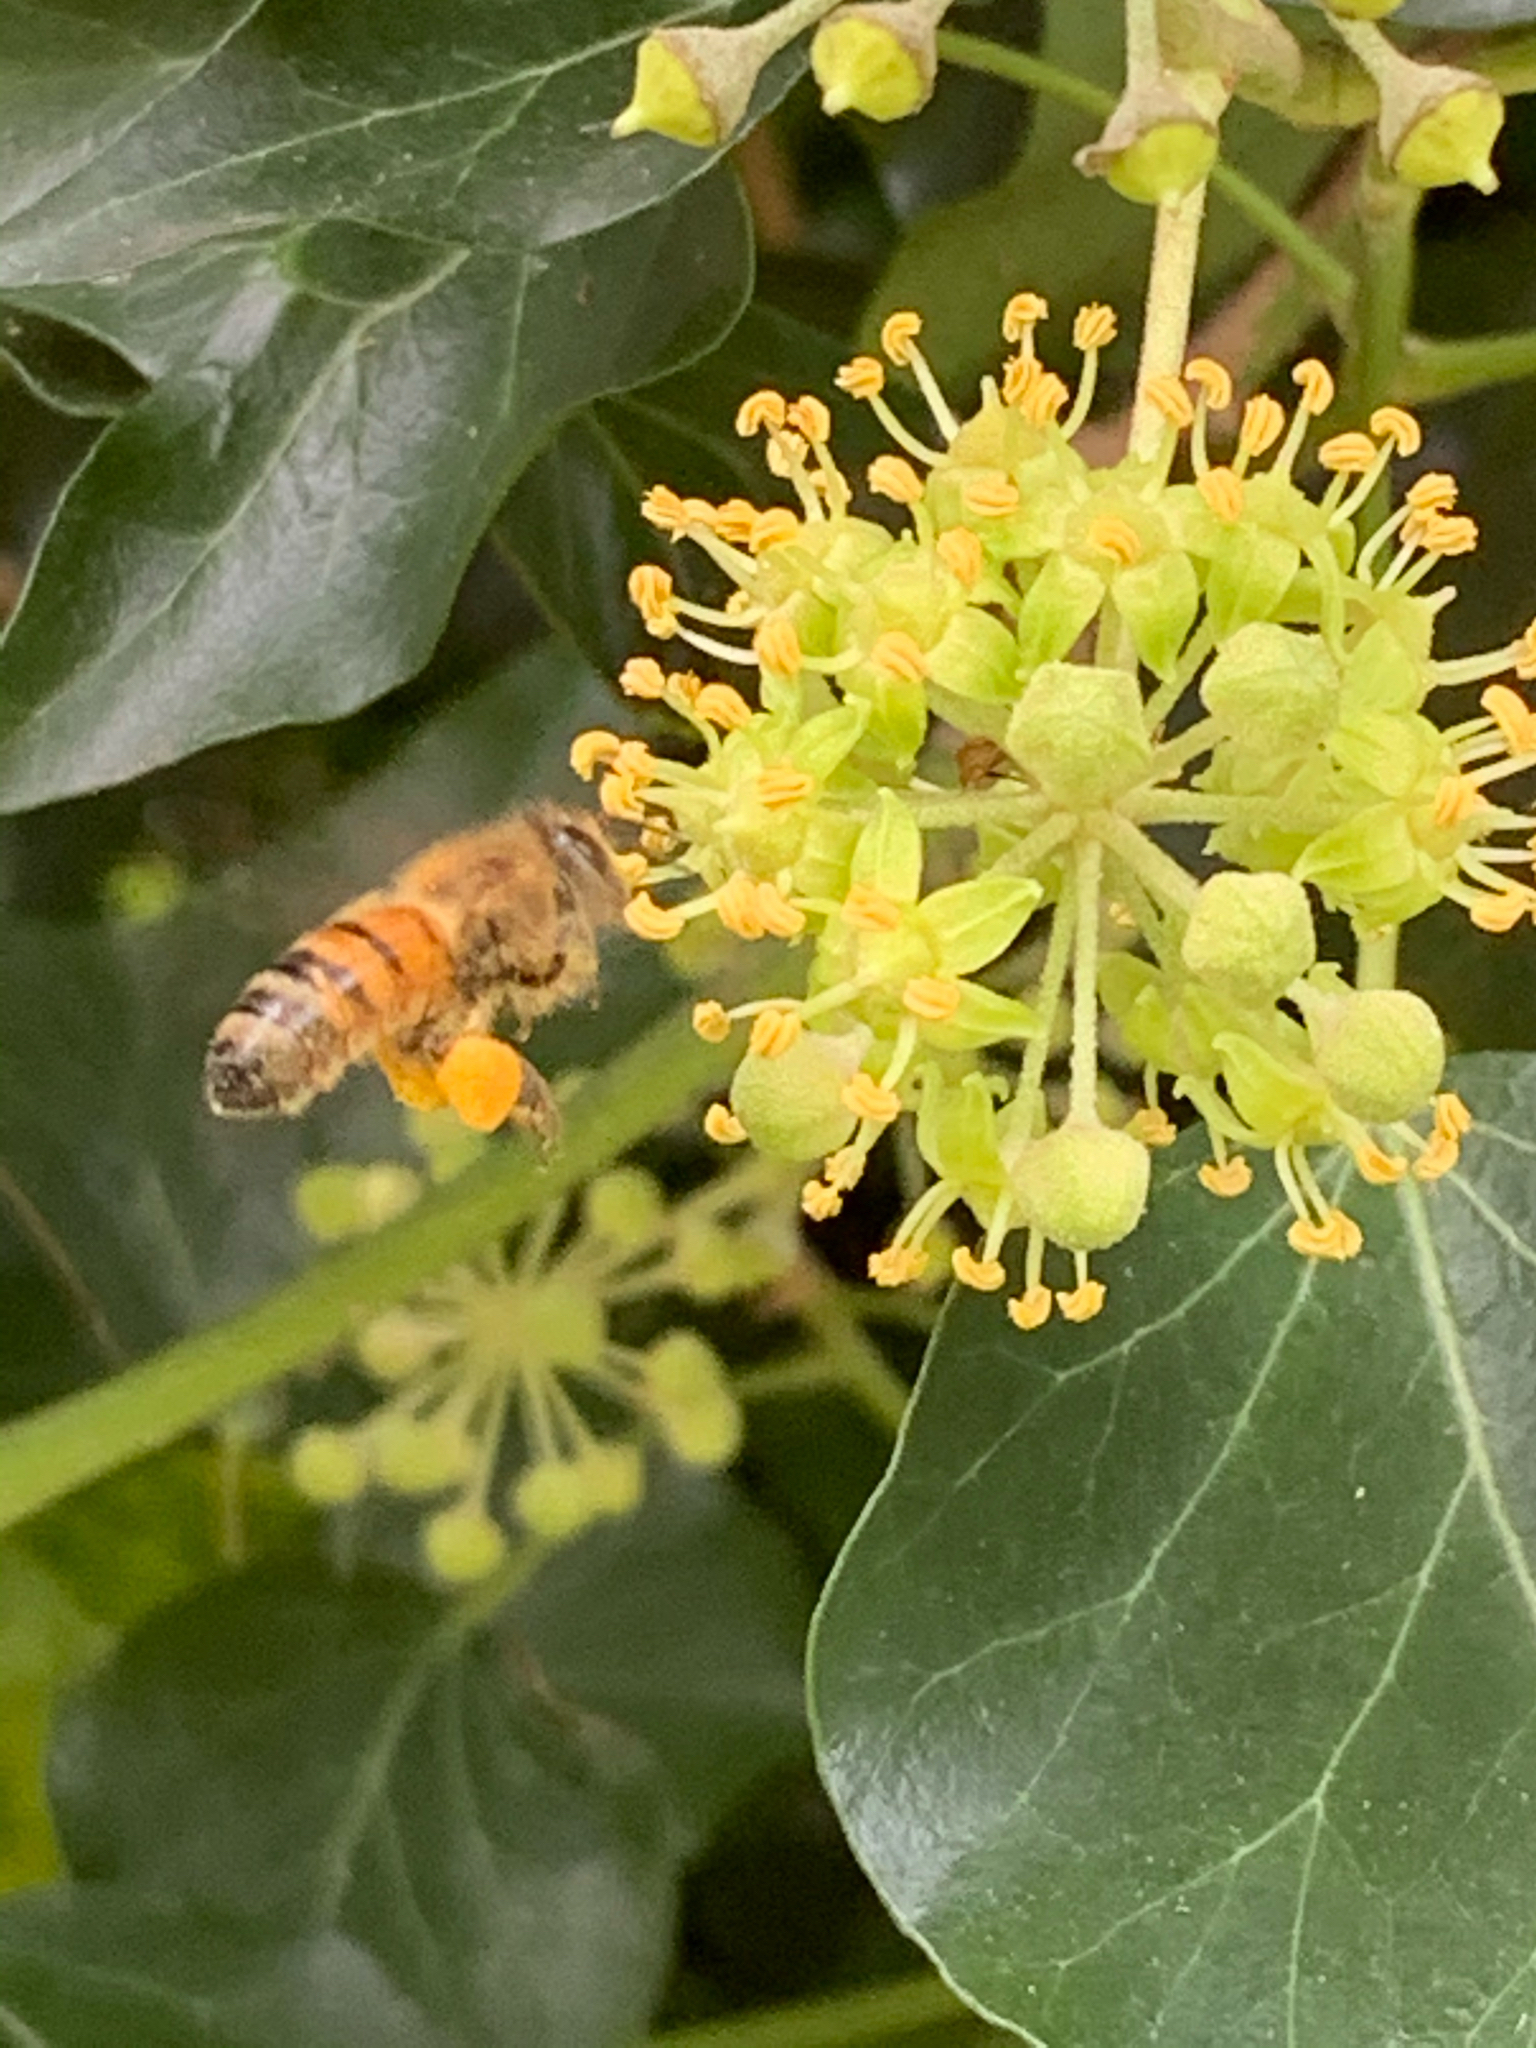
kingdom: Animalia
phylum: Arthropoda
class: Insecta
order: Hymenoptera
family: Apidae
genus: Apis
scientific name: Apis mellifera
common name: Honey bee
